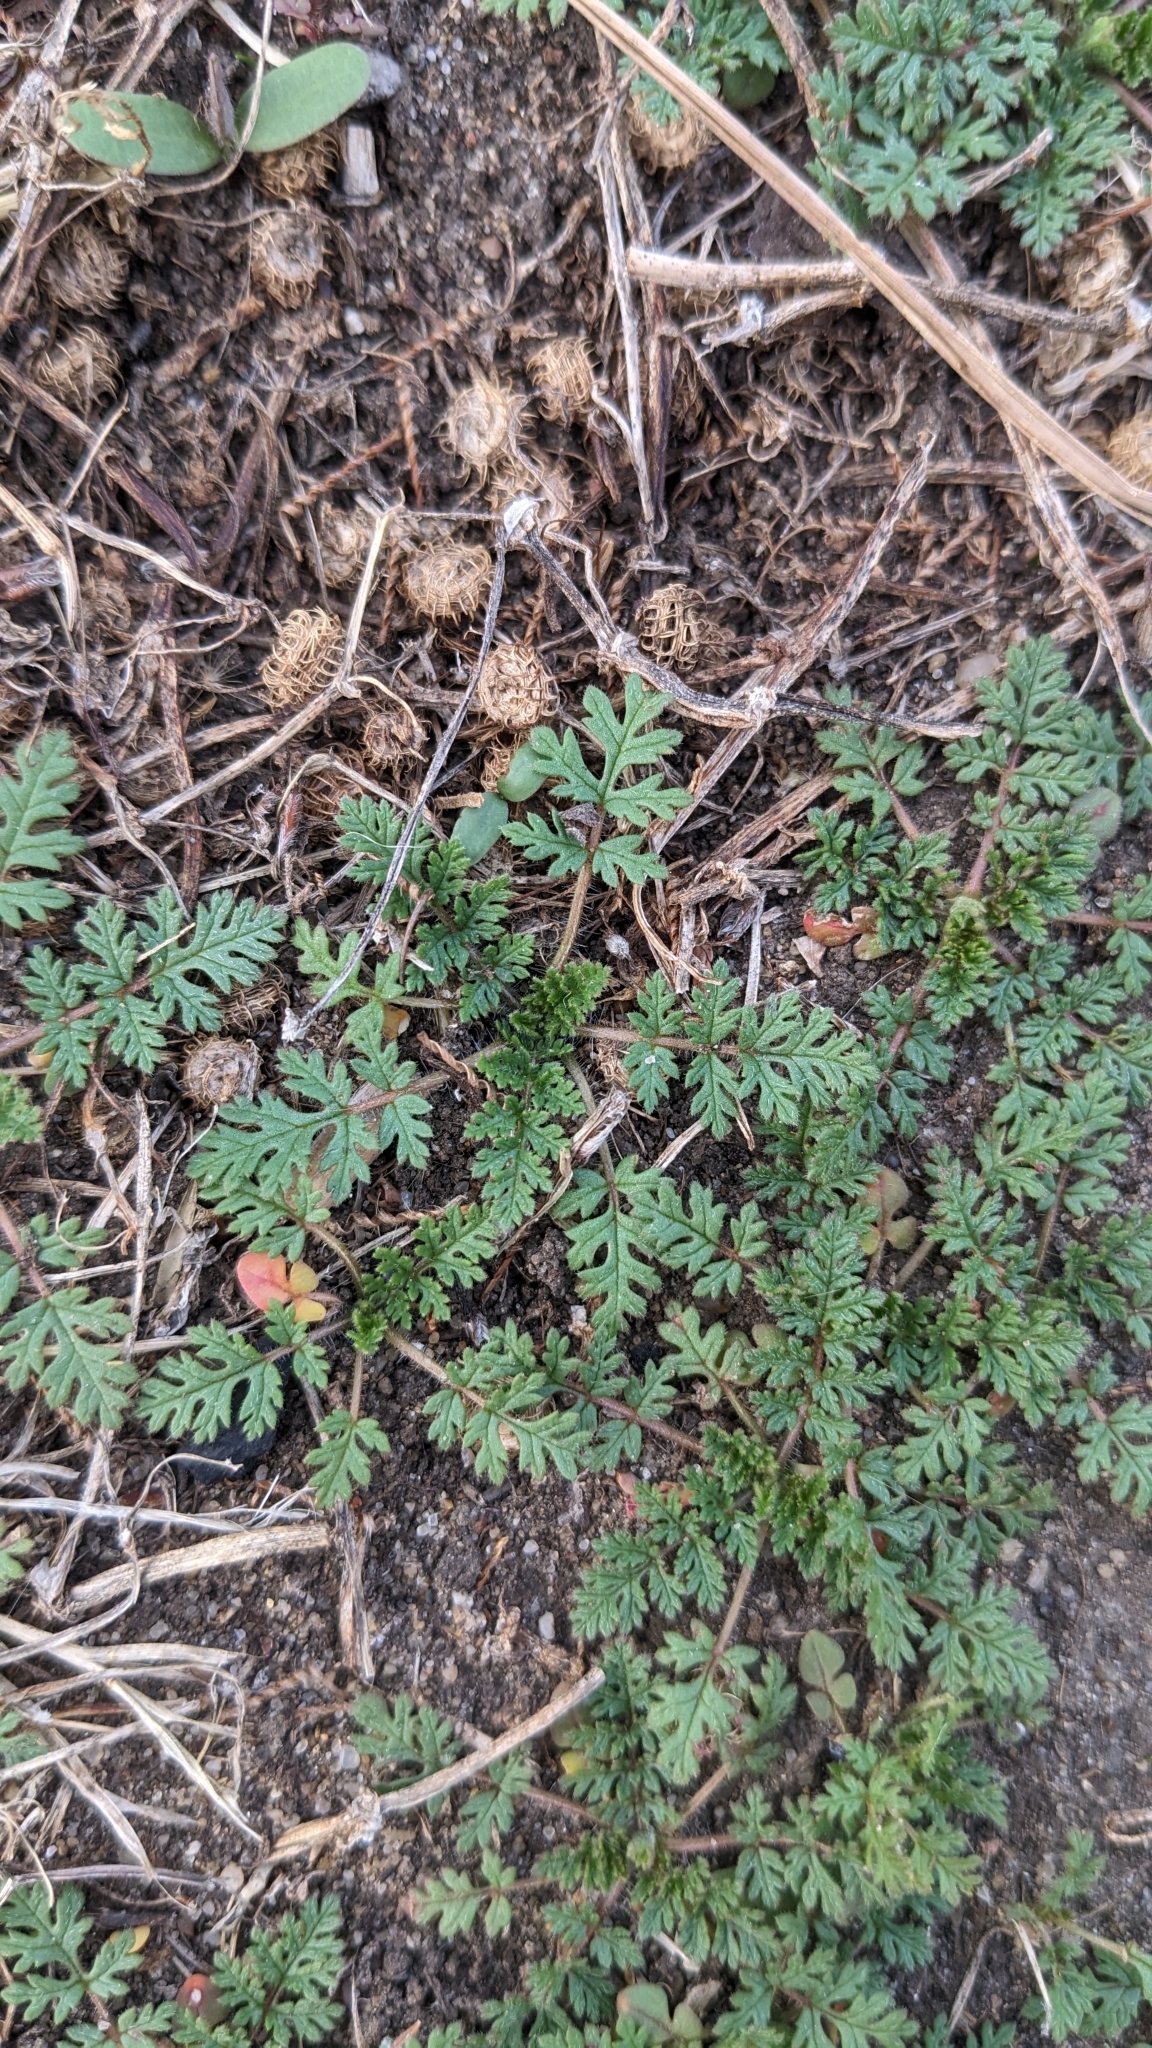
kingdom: Plantae
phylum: Tracheophyta
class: Magnoliopsida
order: Geraniales
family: Geraniaceae
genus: Erodium
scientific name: Erodium cicutarium
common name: Common stork's-bill
